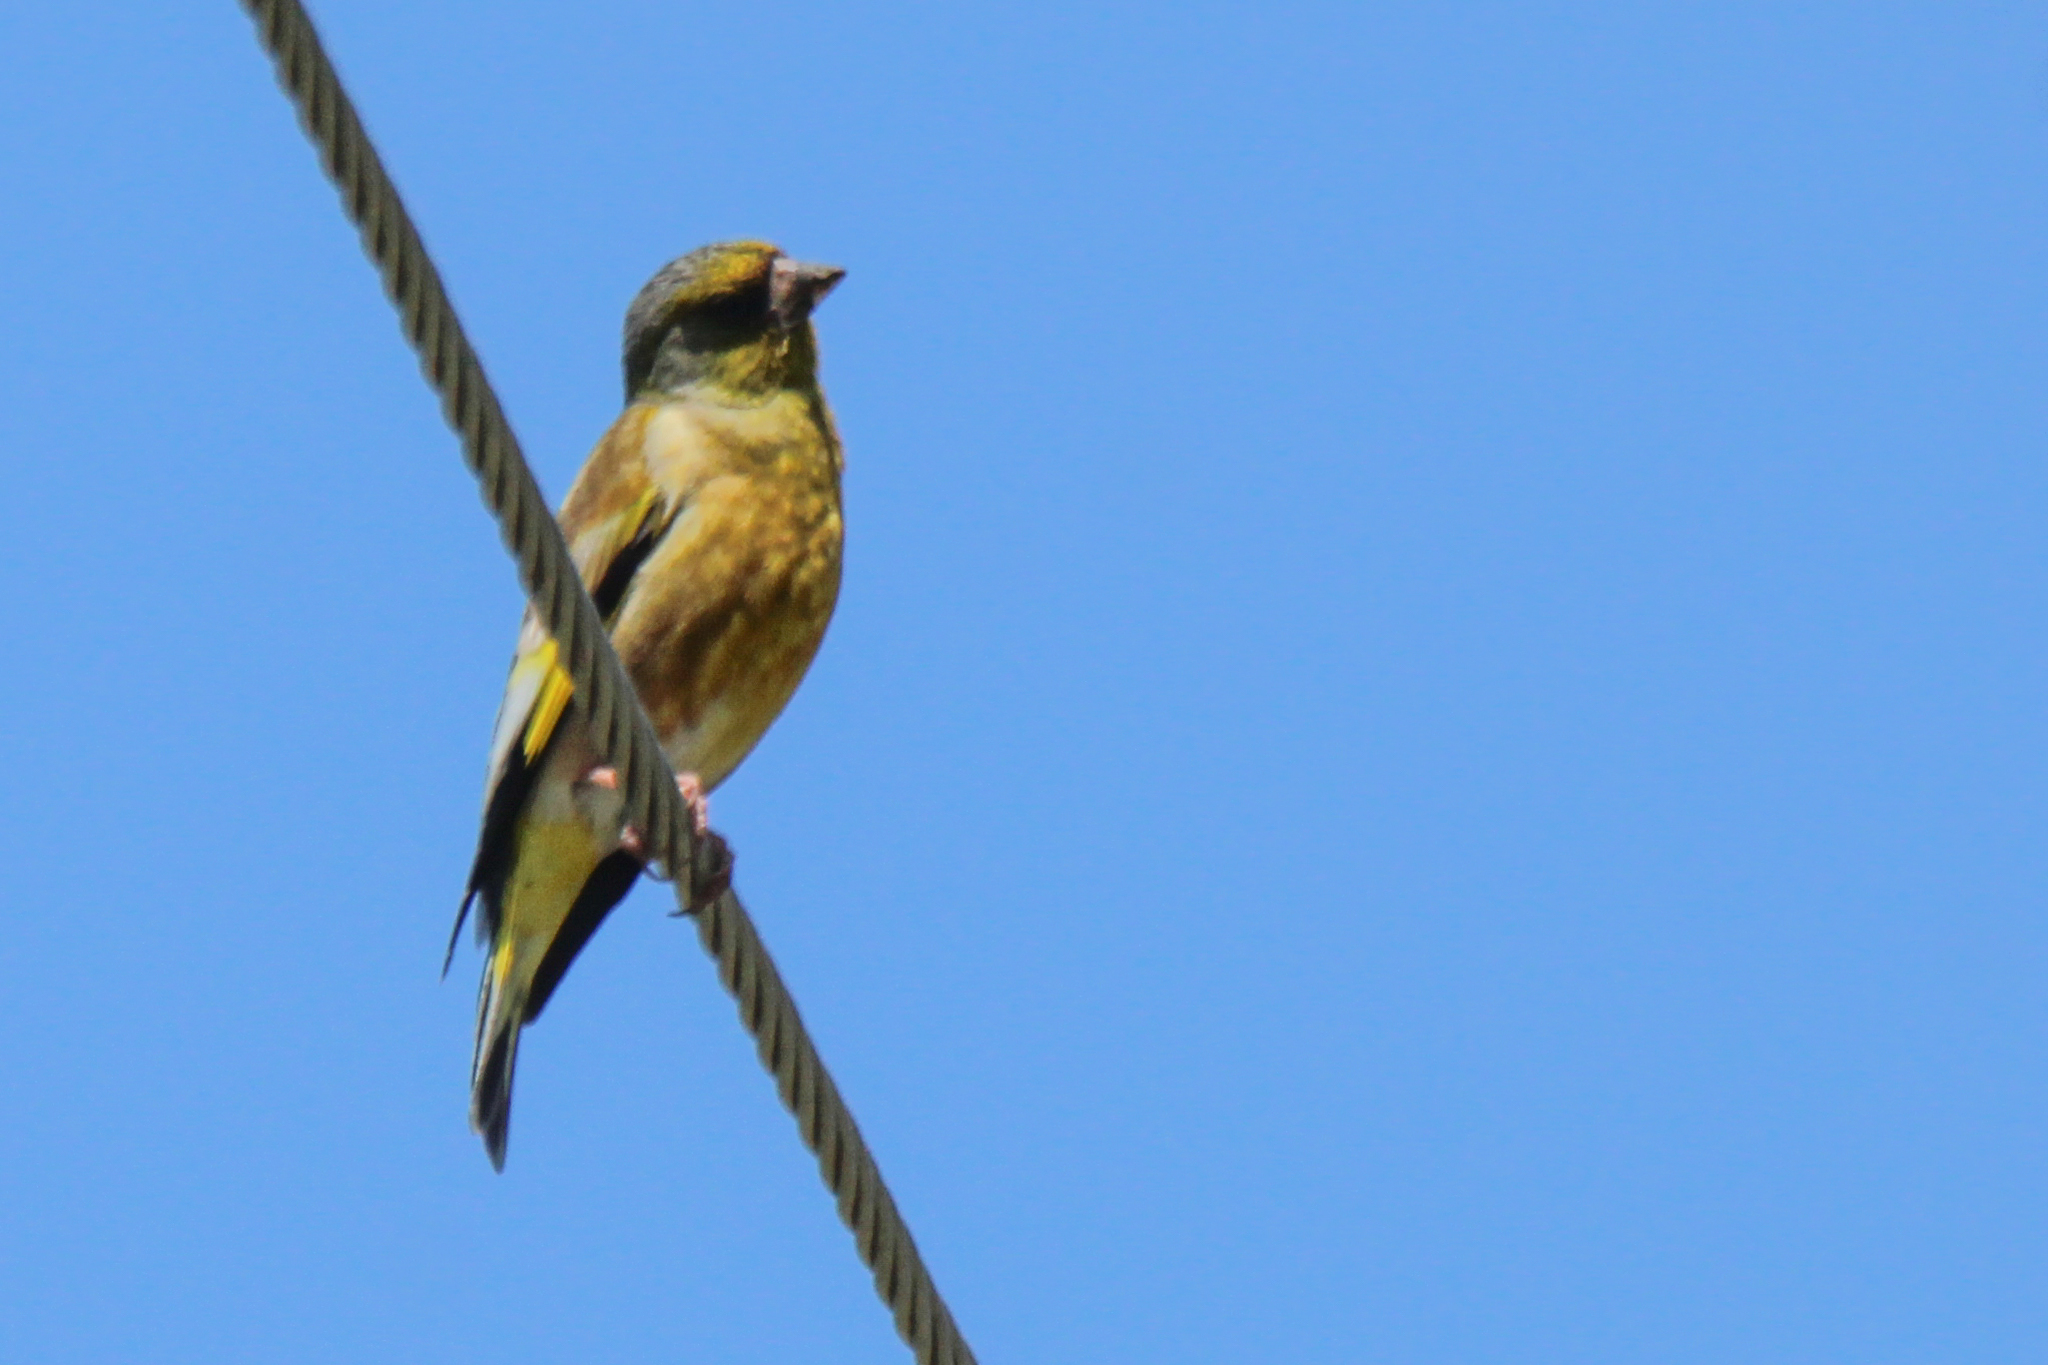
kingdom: Plantae
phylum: Tracheophyta
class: Liliopsida
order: Poales
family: Poaceae
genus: Chloris
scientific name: Chloris sinica
